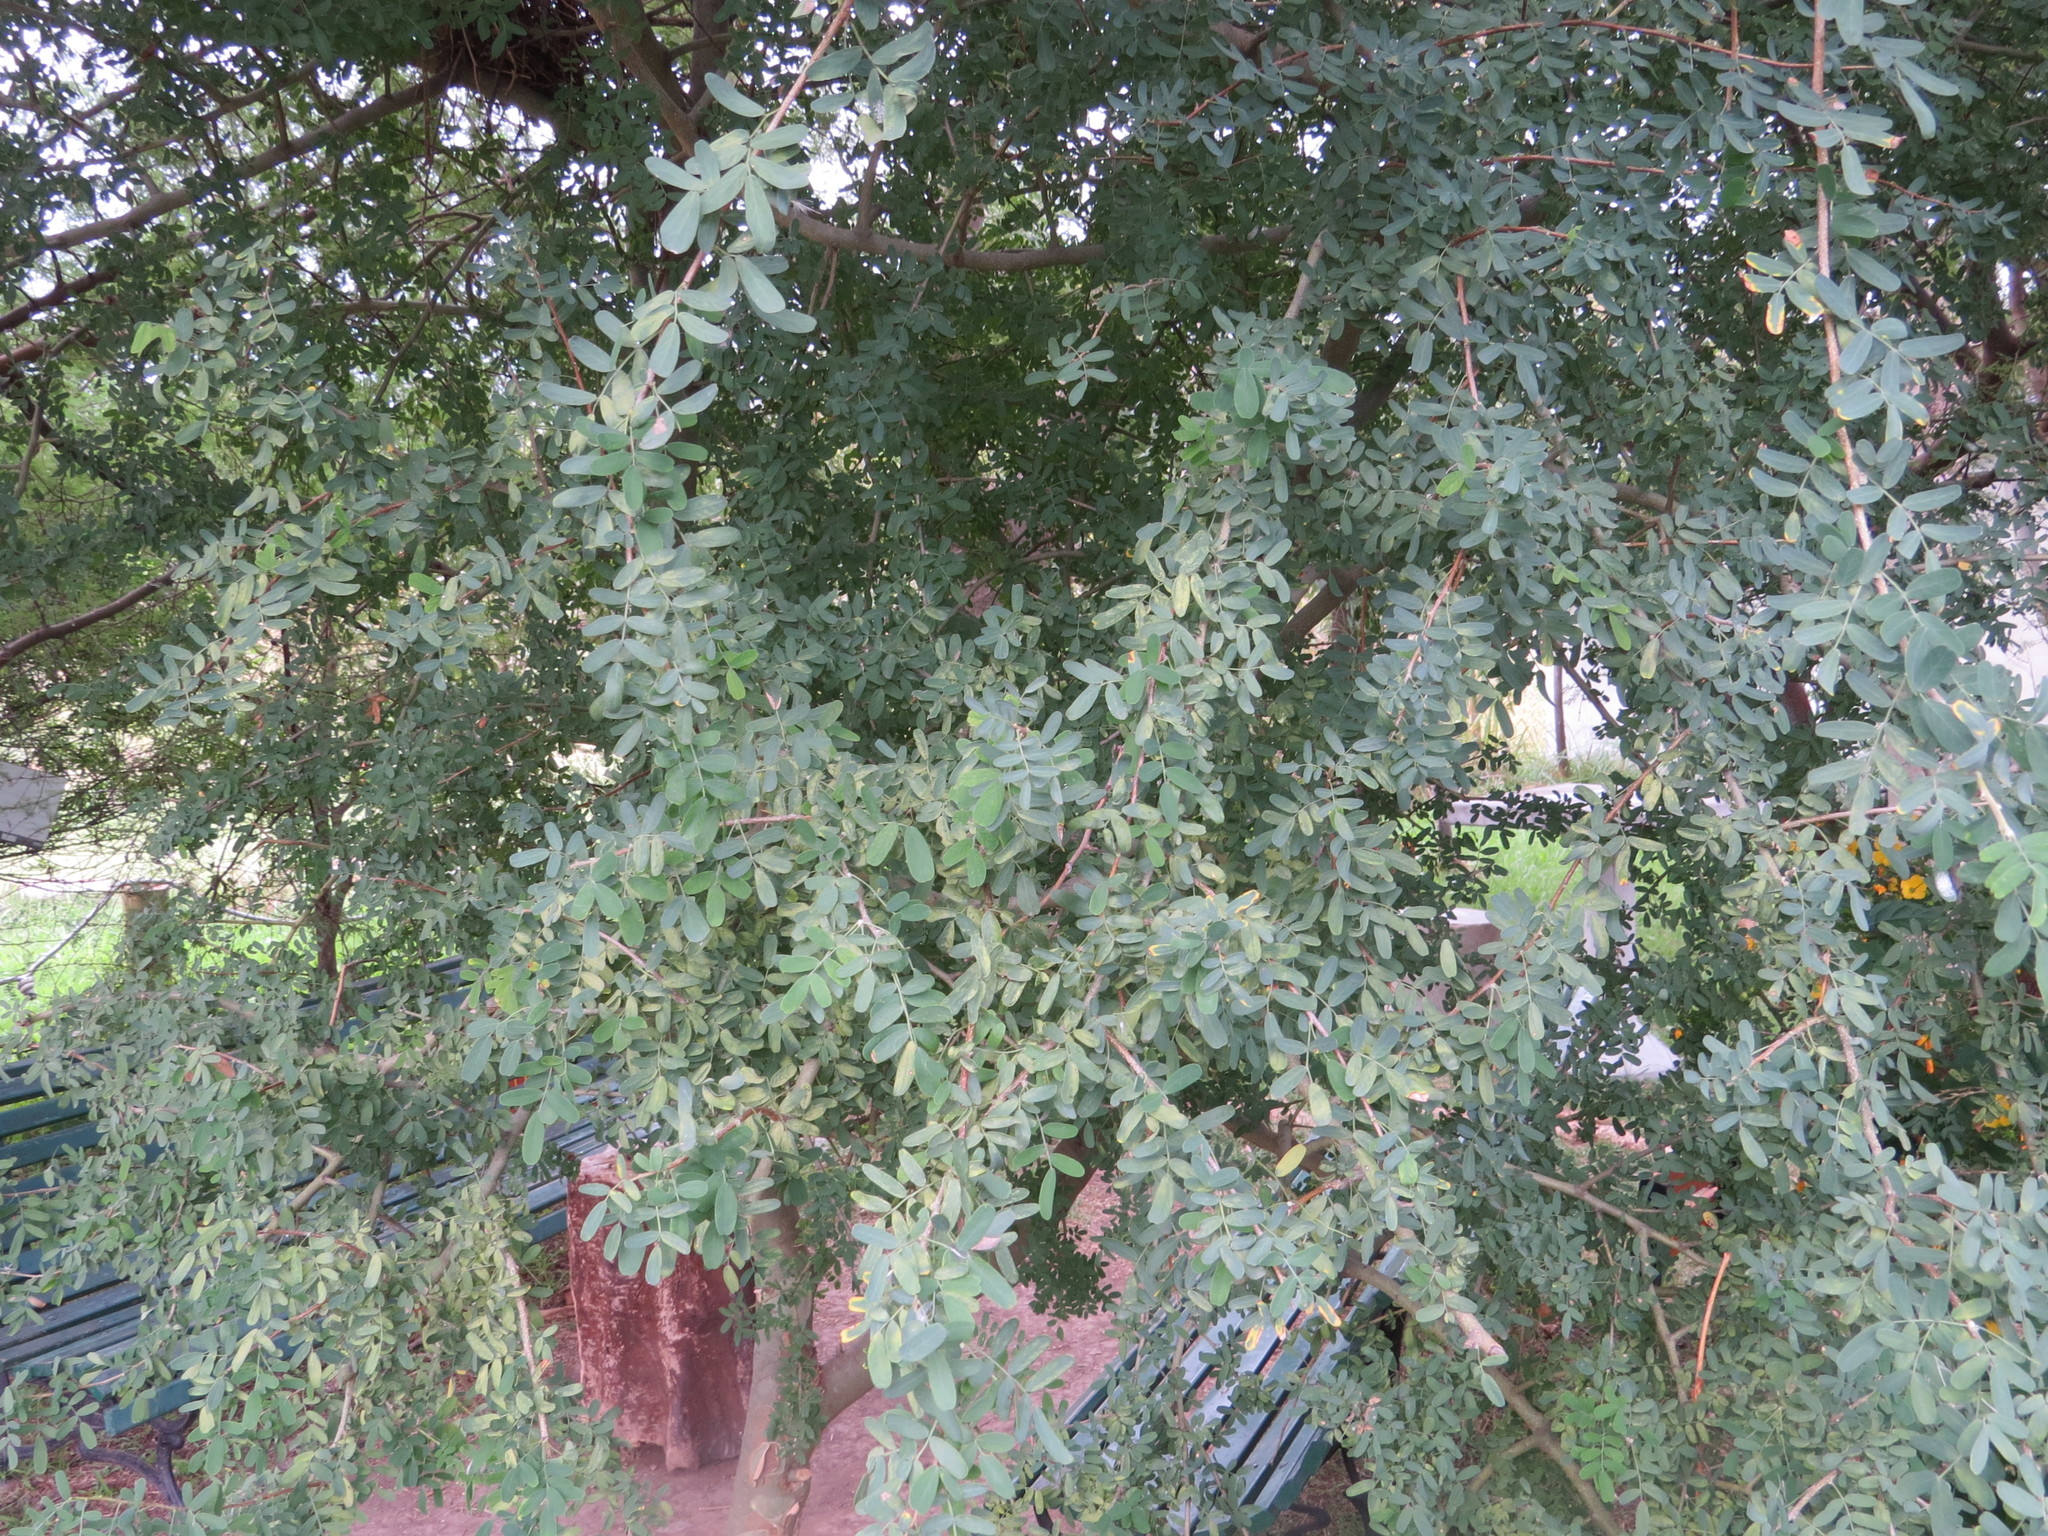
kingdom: Plantae
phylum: Tracheophyta
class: Magnoliopsida
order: Fabales
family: Fabaceae
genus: Geoffroea
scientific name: Geoffroea decorticans
